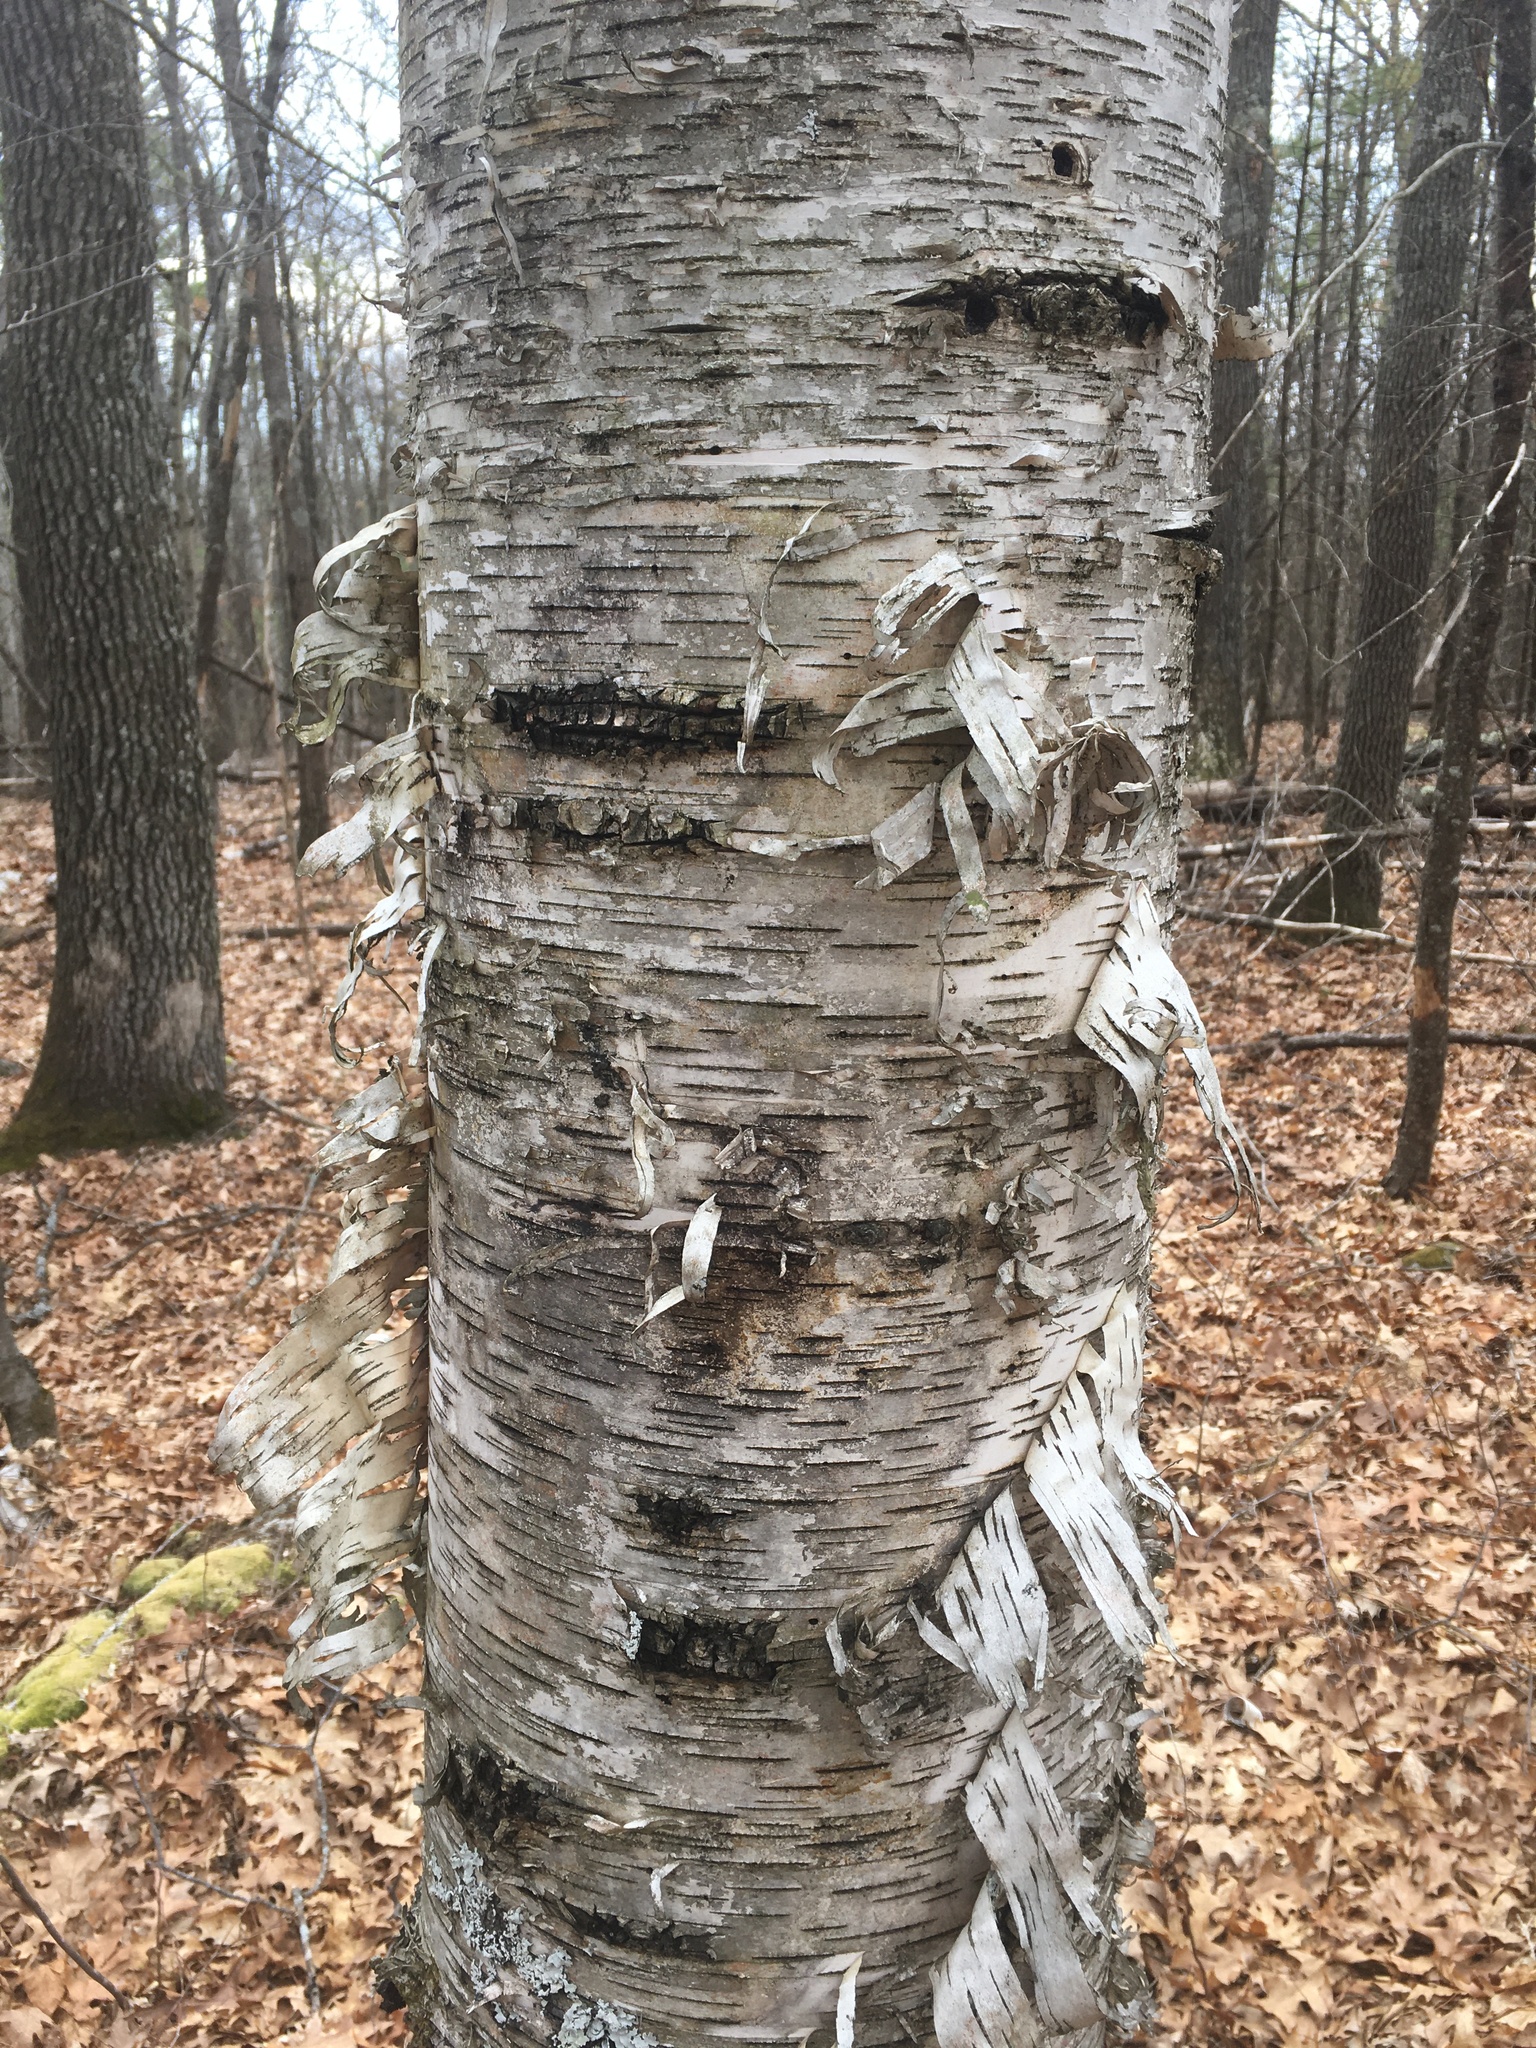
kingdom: Plantae
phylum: Tracheophyta
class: Magnoliopsida
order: Fagales
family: Betulaceae
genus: Betula
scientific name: Betula papyrifera
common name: Paper birch
